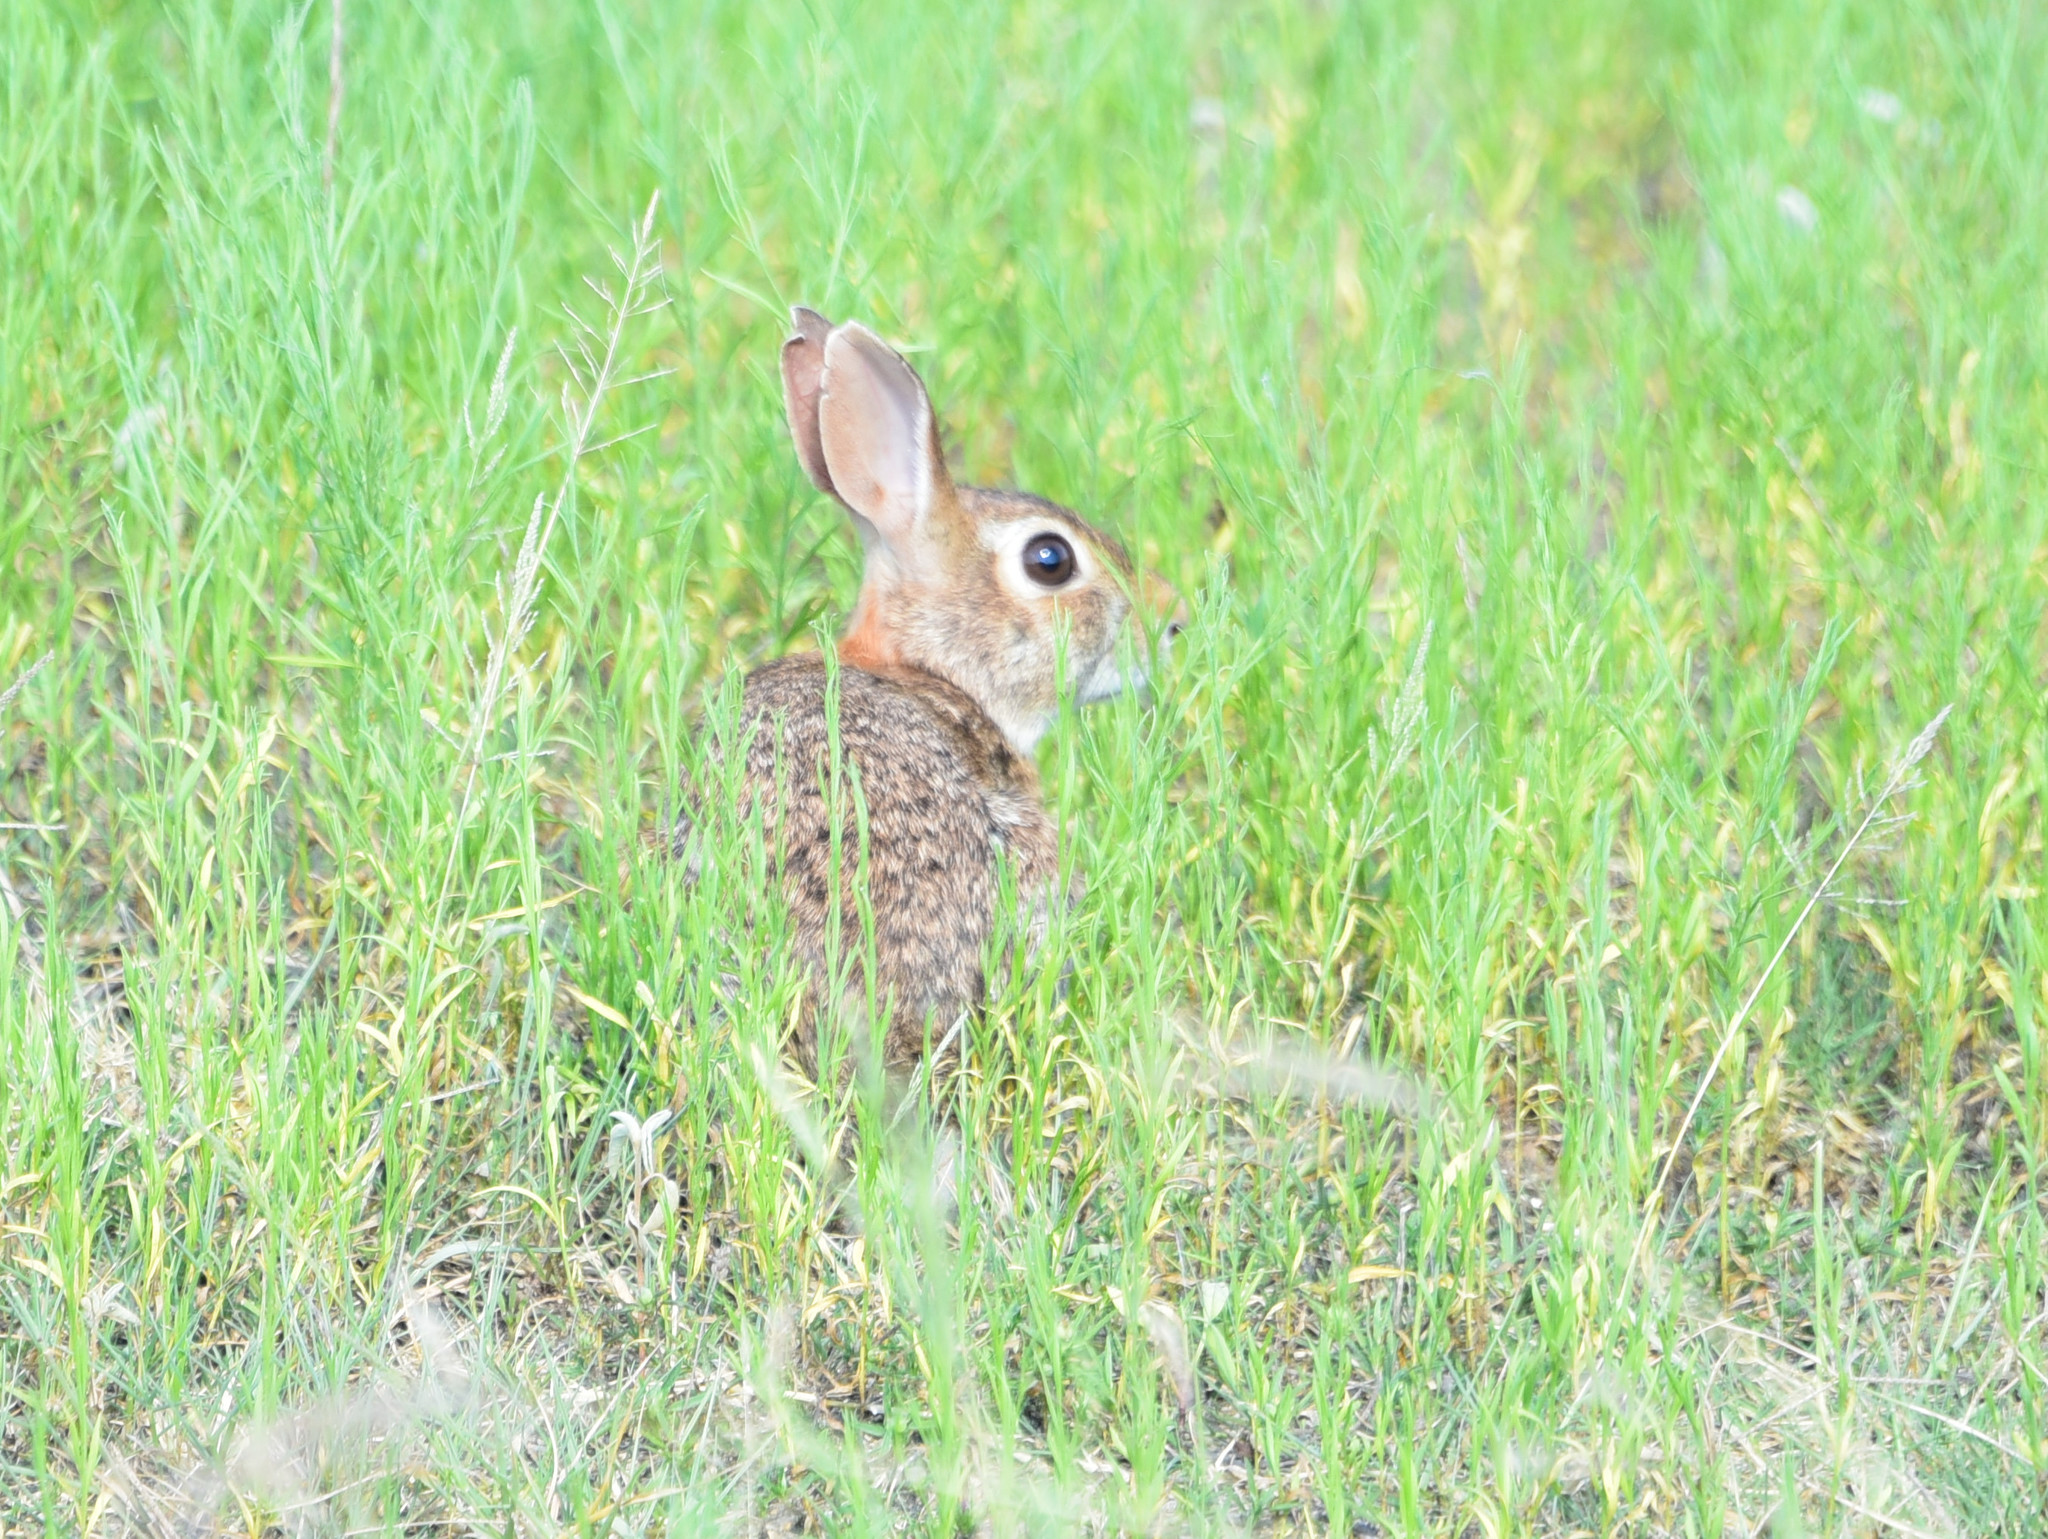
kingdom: Animalia
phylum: Chordata
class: Mammalia
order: Lagomorpha
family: Leporidae
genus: Sylvilagus
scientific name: Sylvilagus floridanus
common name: Eastern cottontail
